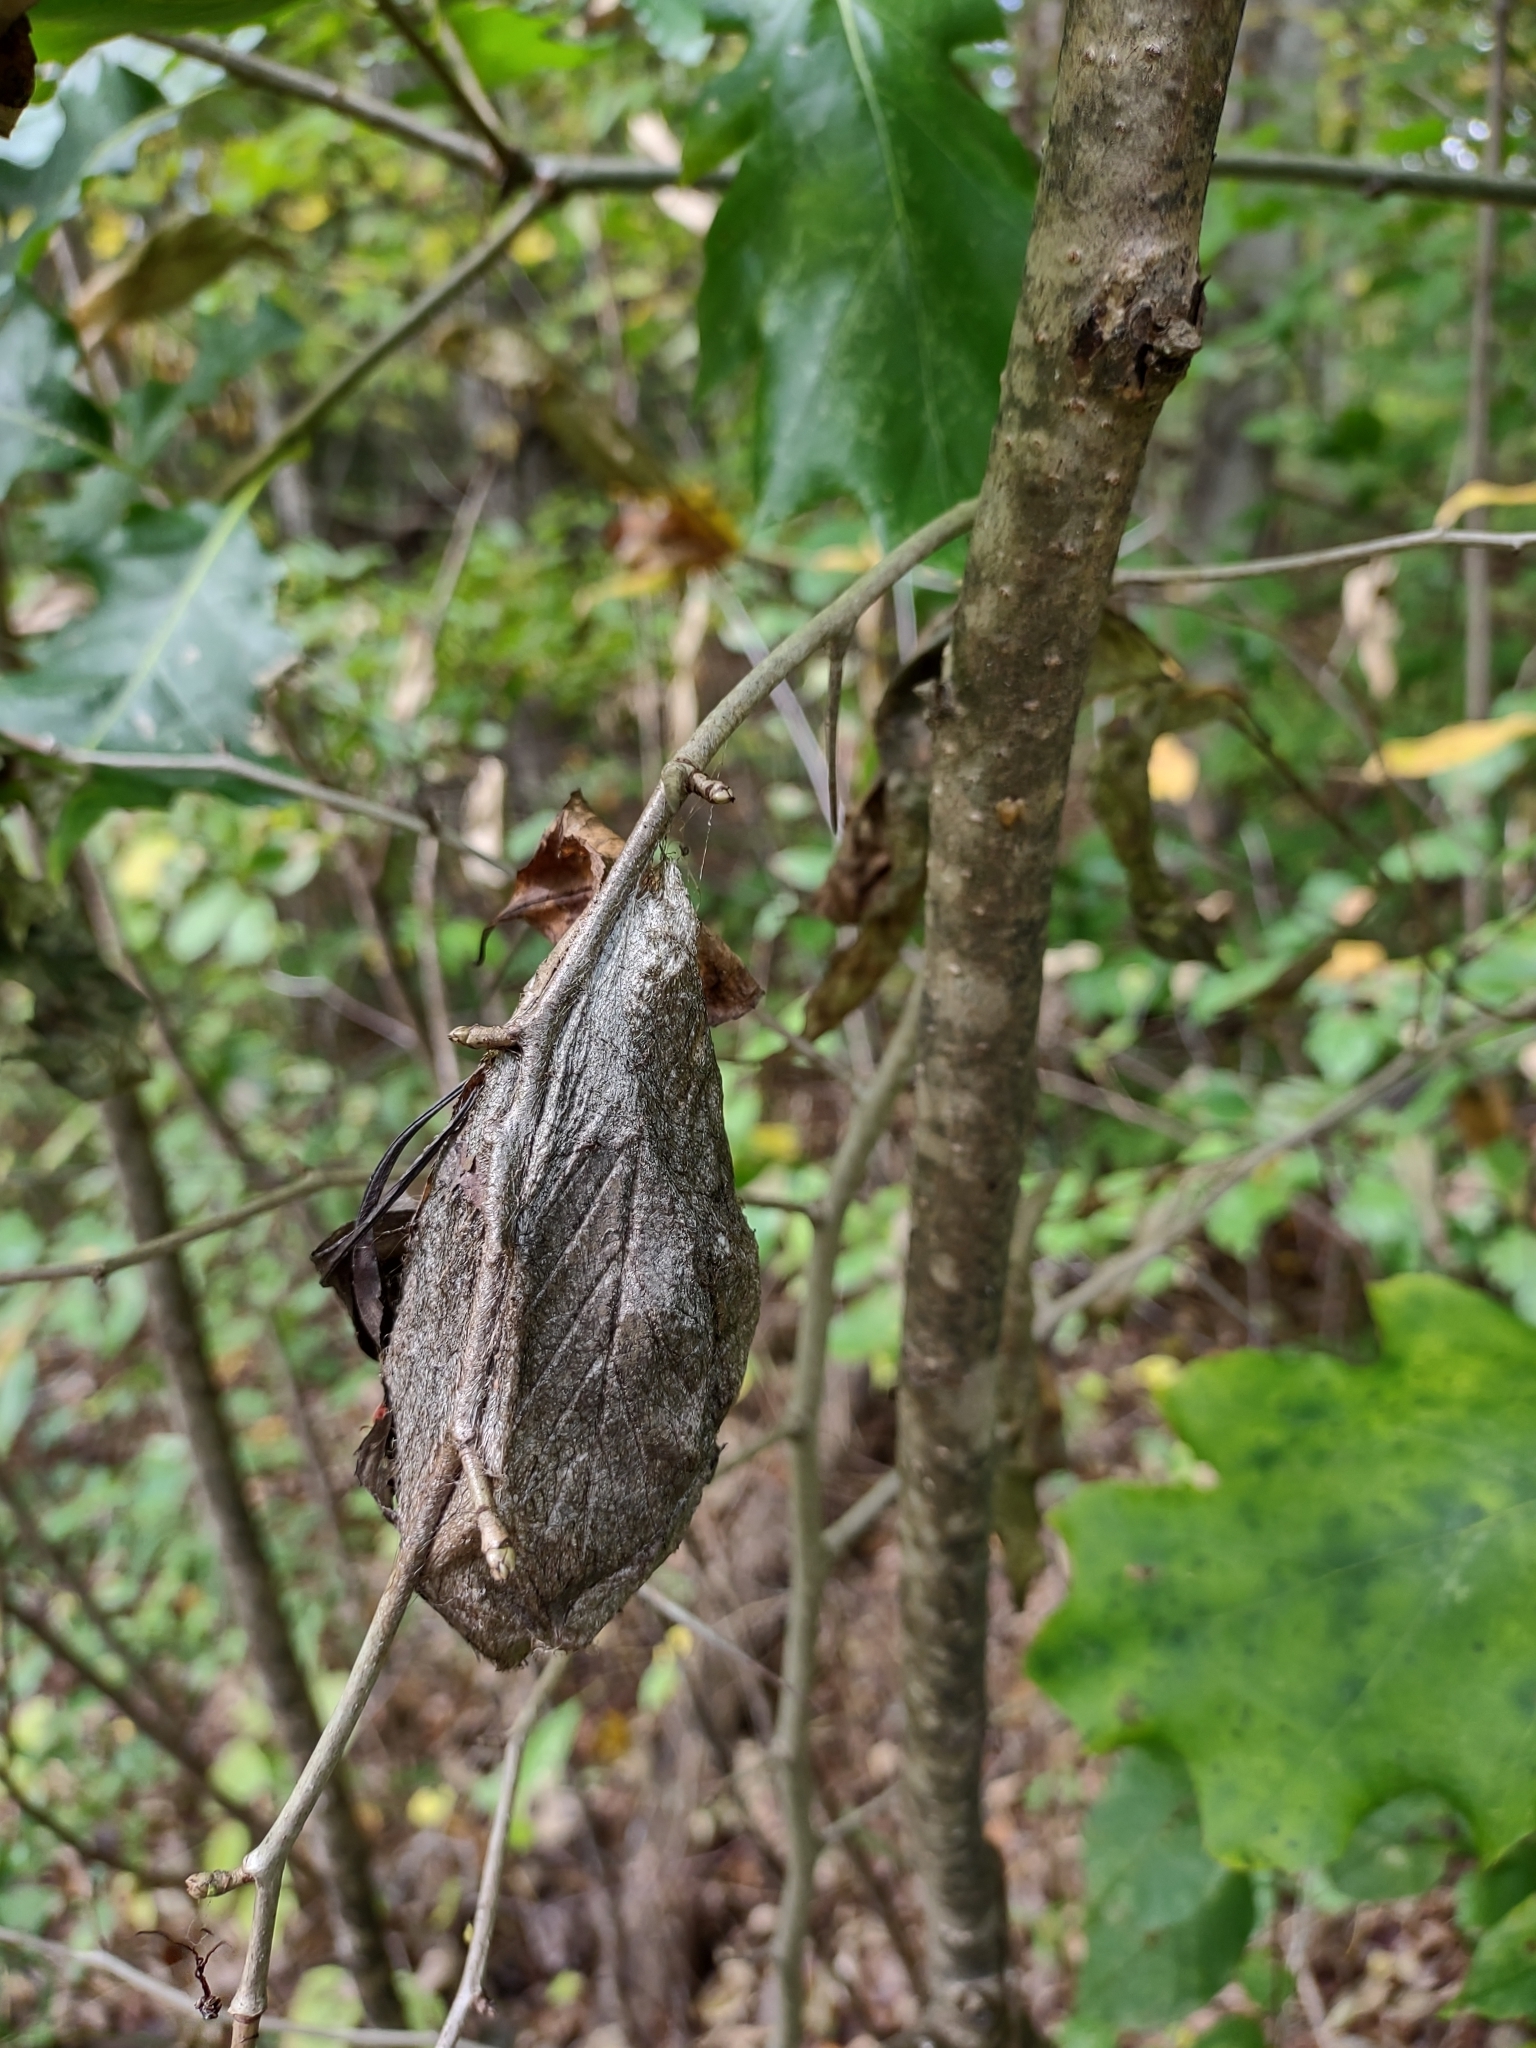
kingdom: Animalia
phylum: Arthropoda
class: Insecta
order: Lepidoptera
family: Saturniidae
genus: Hyalophora
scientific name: Hyalophora cecropia
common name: Cecropia silkmoth
